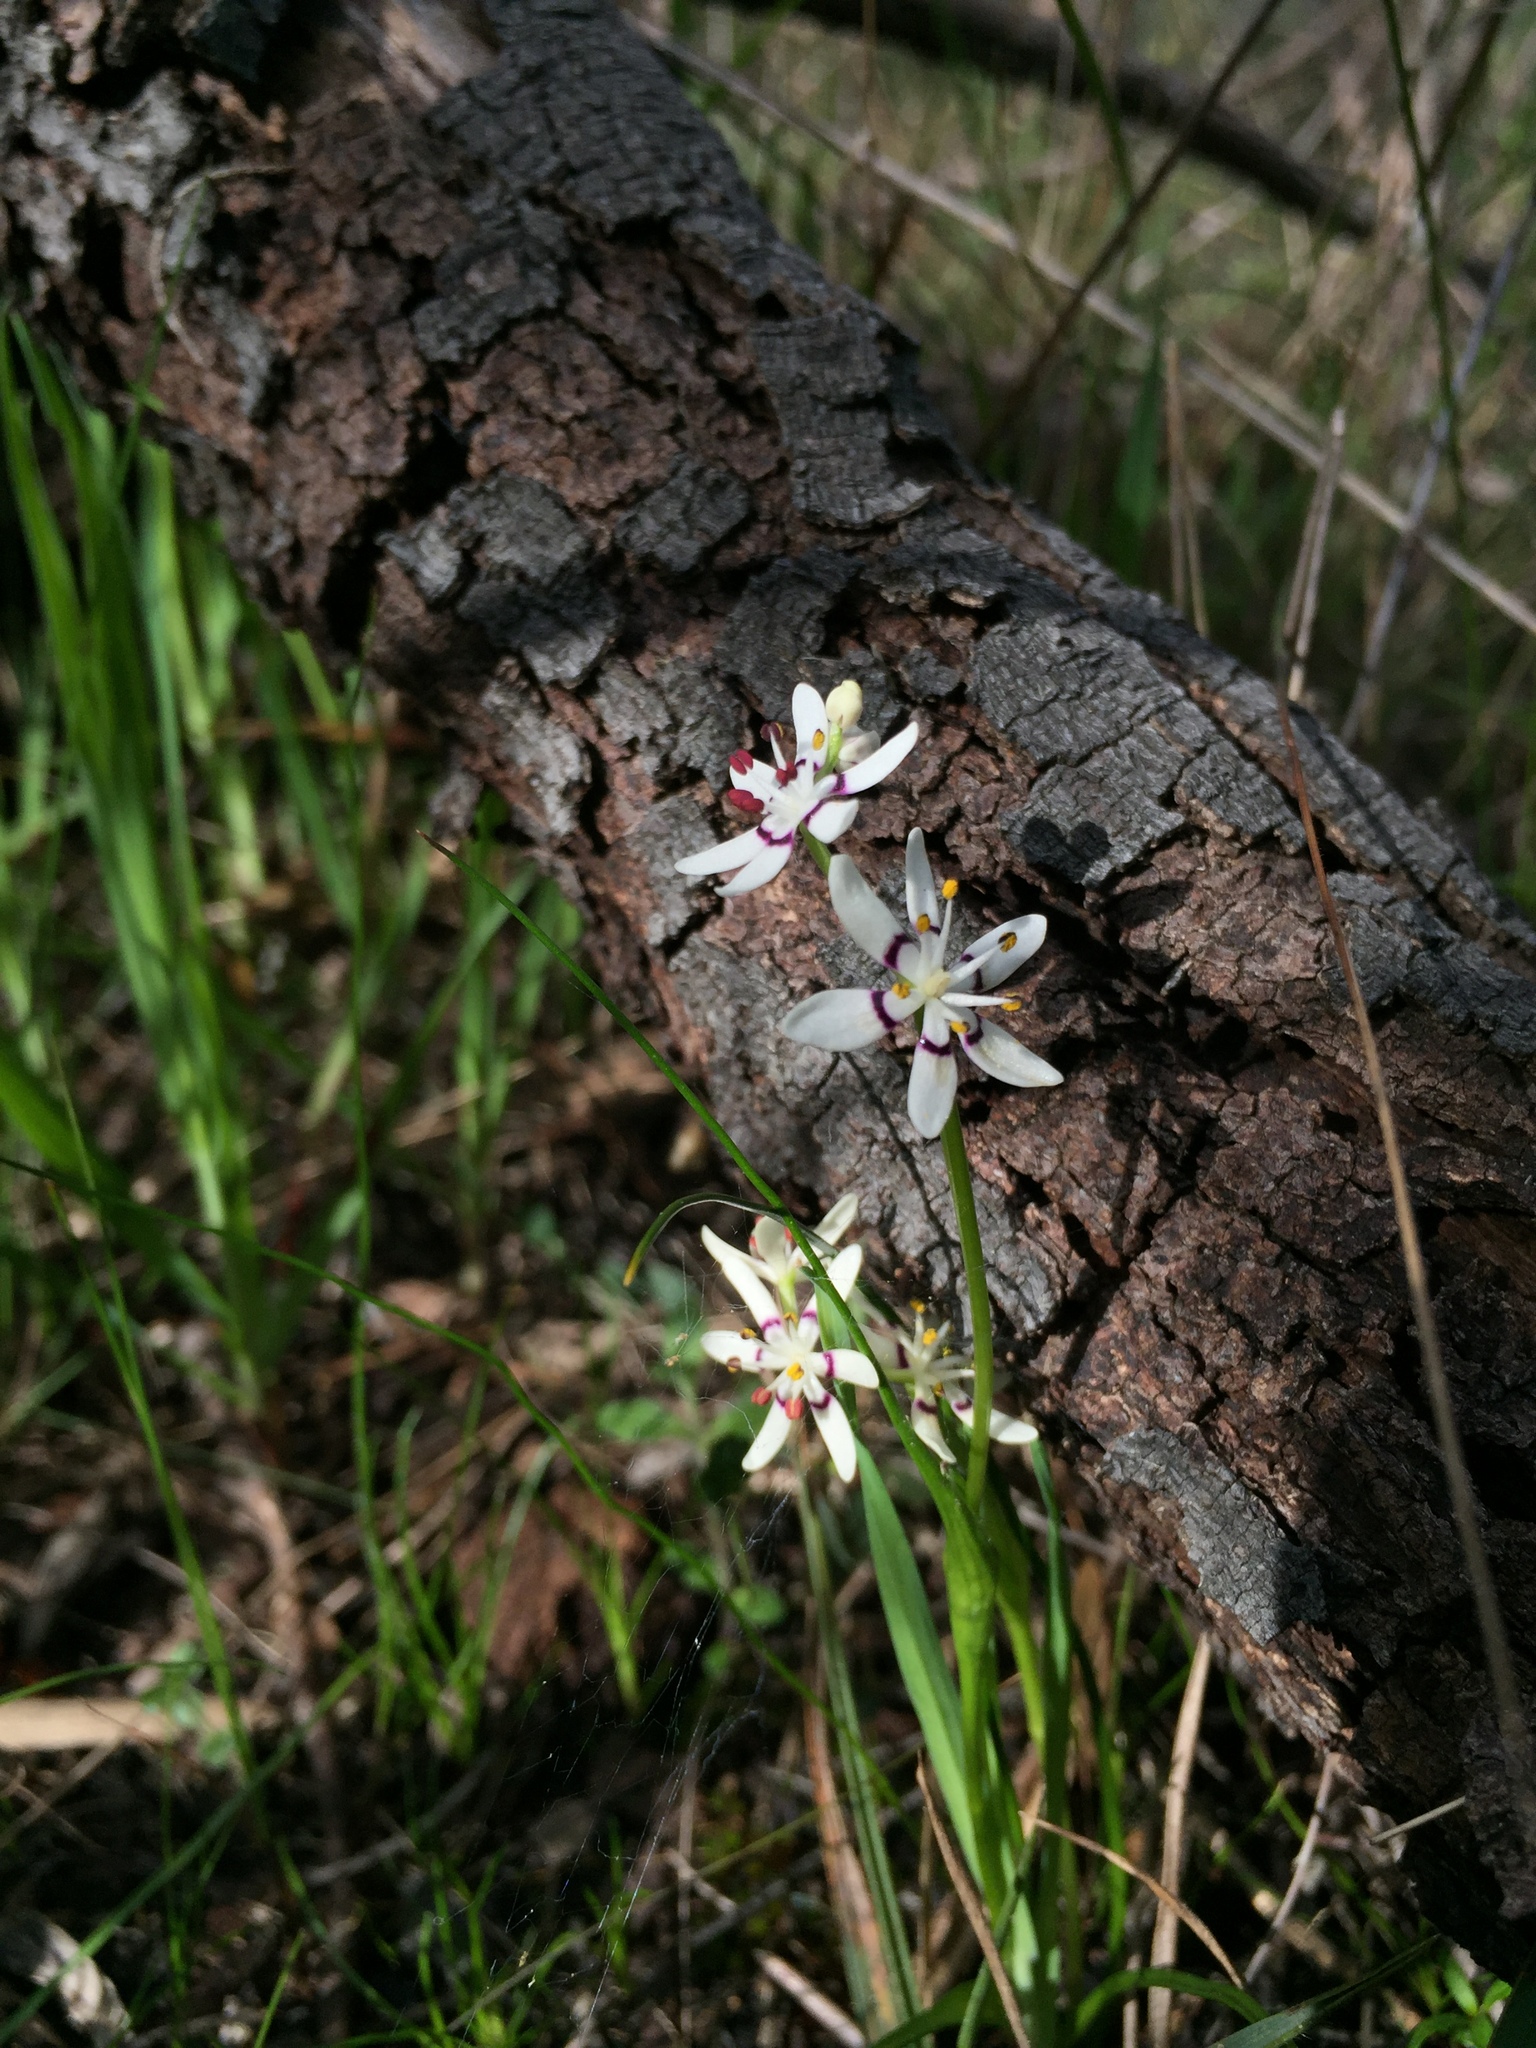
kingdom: Plantae
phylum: Tracheophyta
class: Liliopsida
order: Liliales
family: Colchicaceae
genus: Wurmbea
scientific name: Wurmbea dioica
